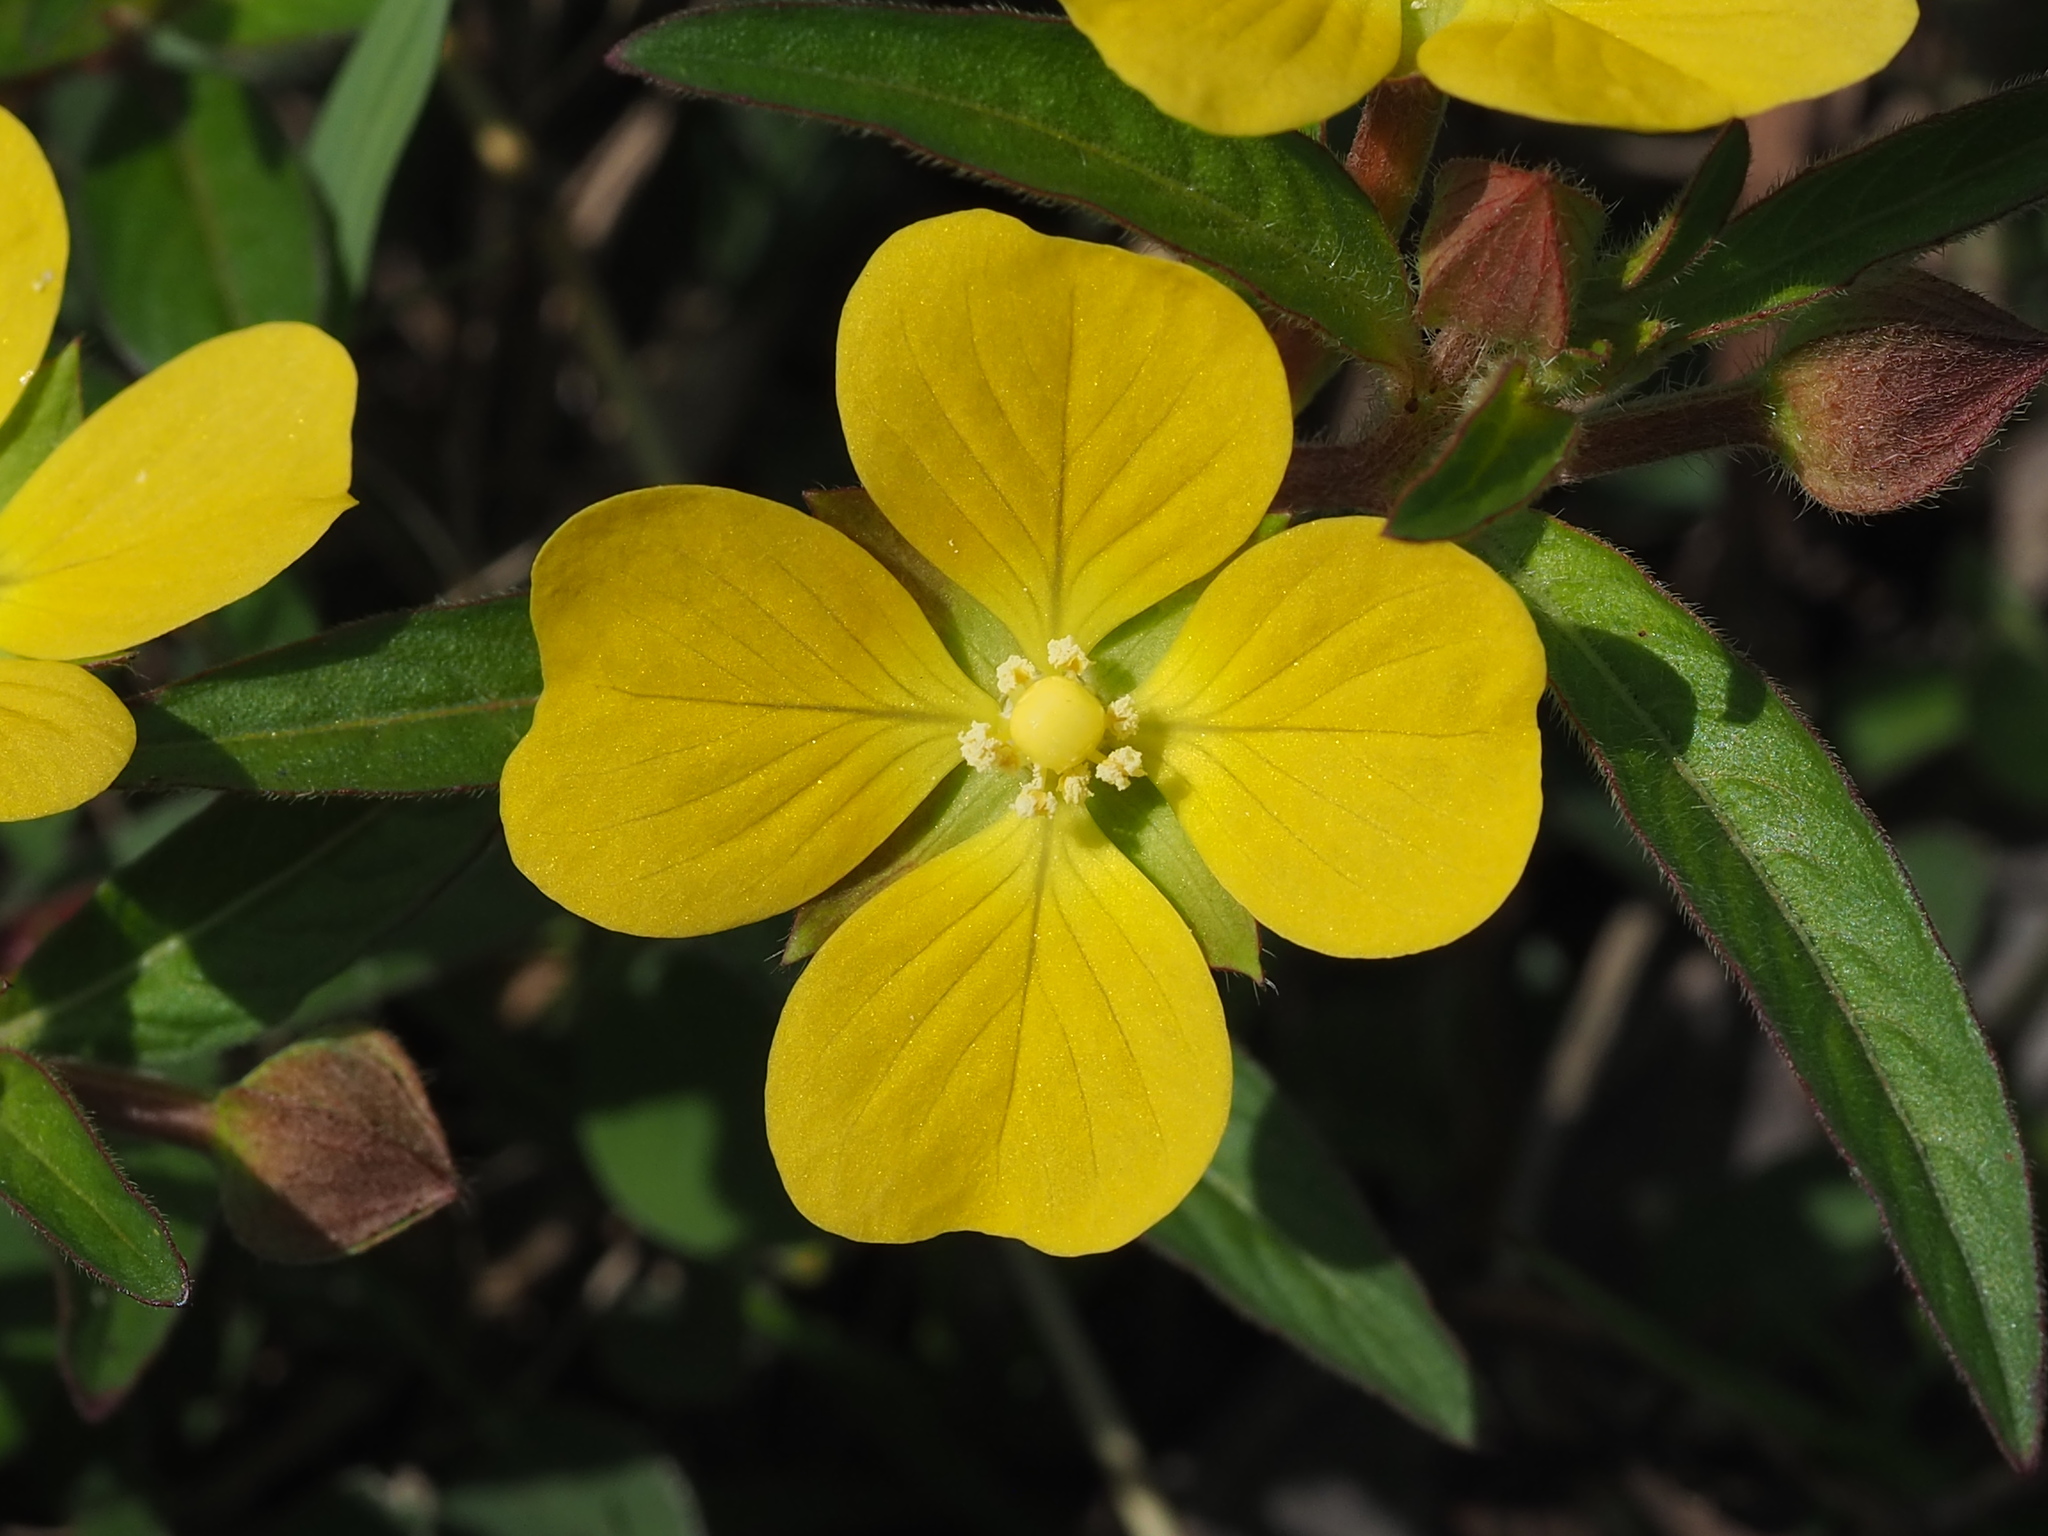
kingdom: Plantae
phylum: Tracheophyta
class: Magnoliopsida
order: Myrtales
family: Onagraceae
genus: Ludwigia
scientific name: Ludwigia octovalvis
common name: Water-primrose
